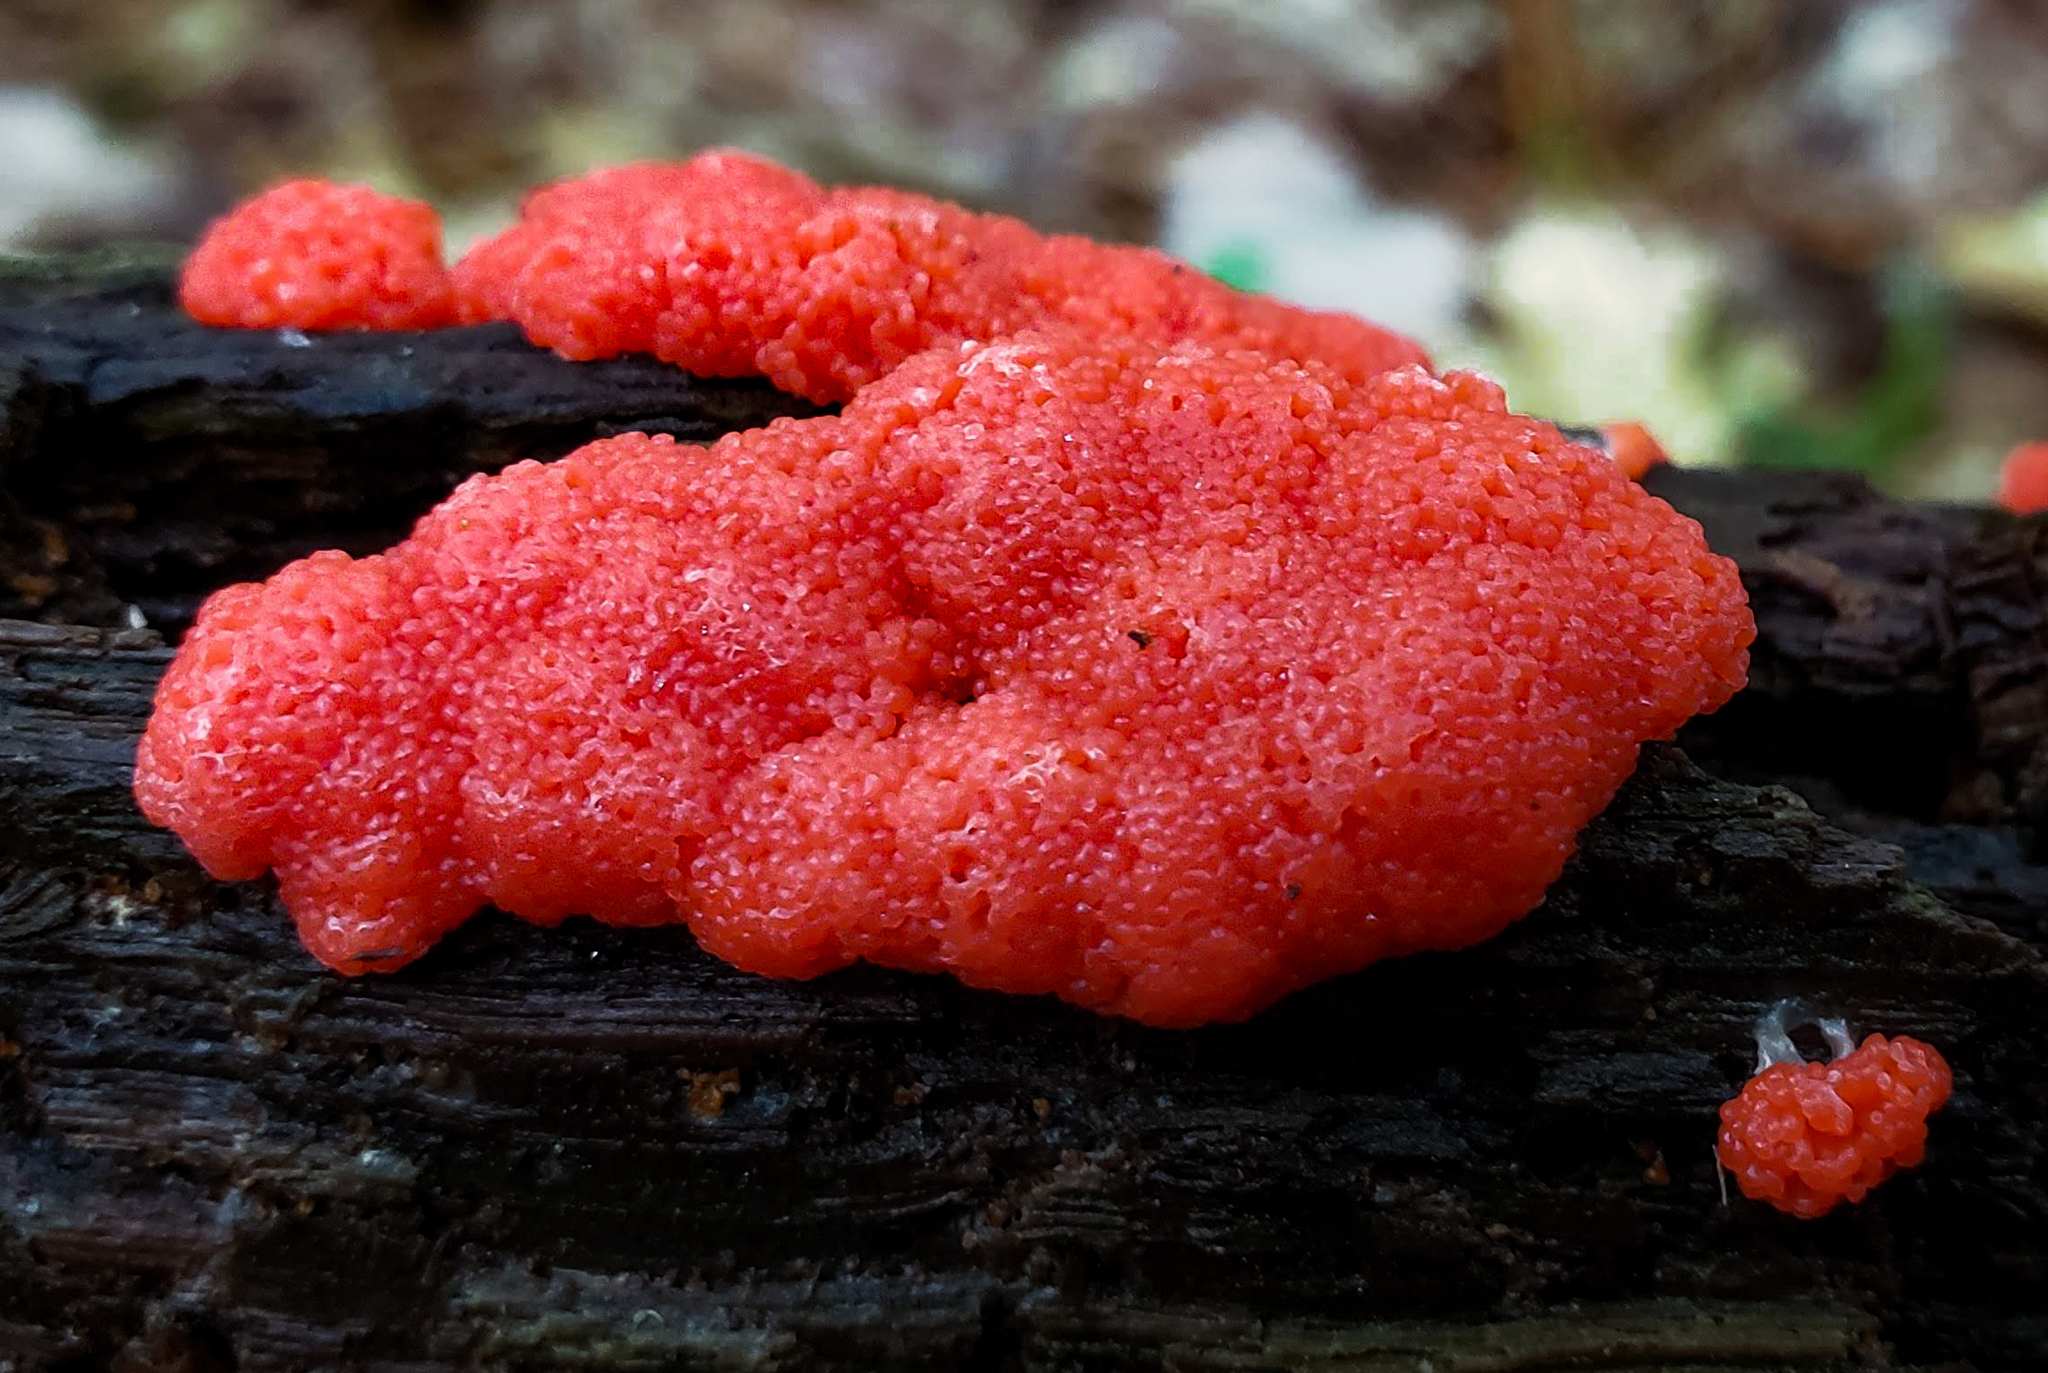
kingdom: Protozoa
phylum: Mycetozoa
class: Myxomycetes
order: Cribrariales
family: Tubiferaceae
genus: Tubifera
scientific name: Tubifera ferruginosa
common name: Red raspberry slime mold
